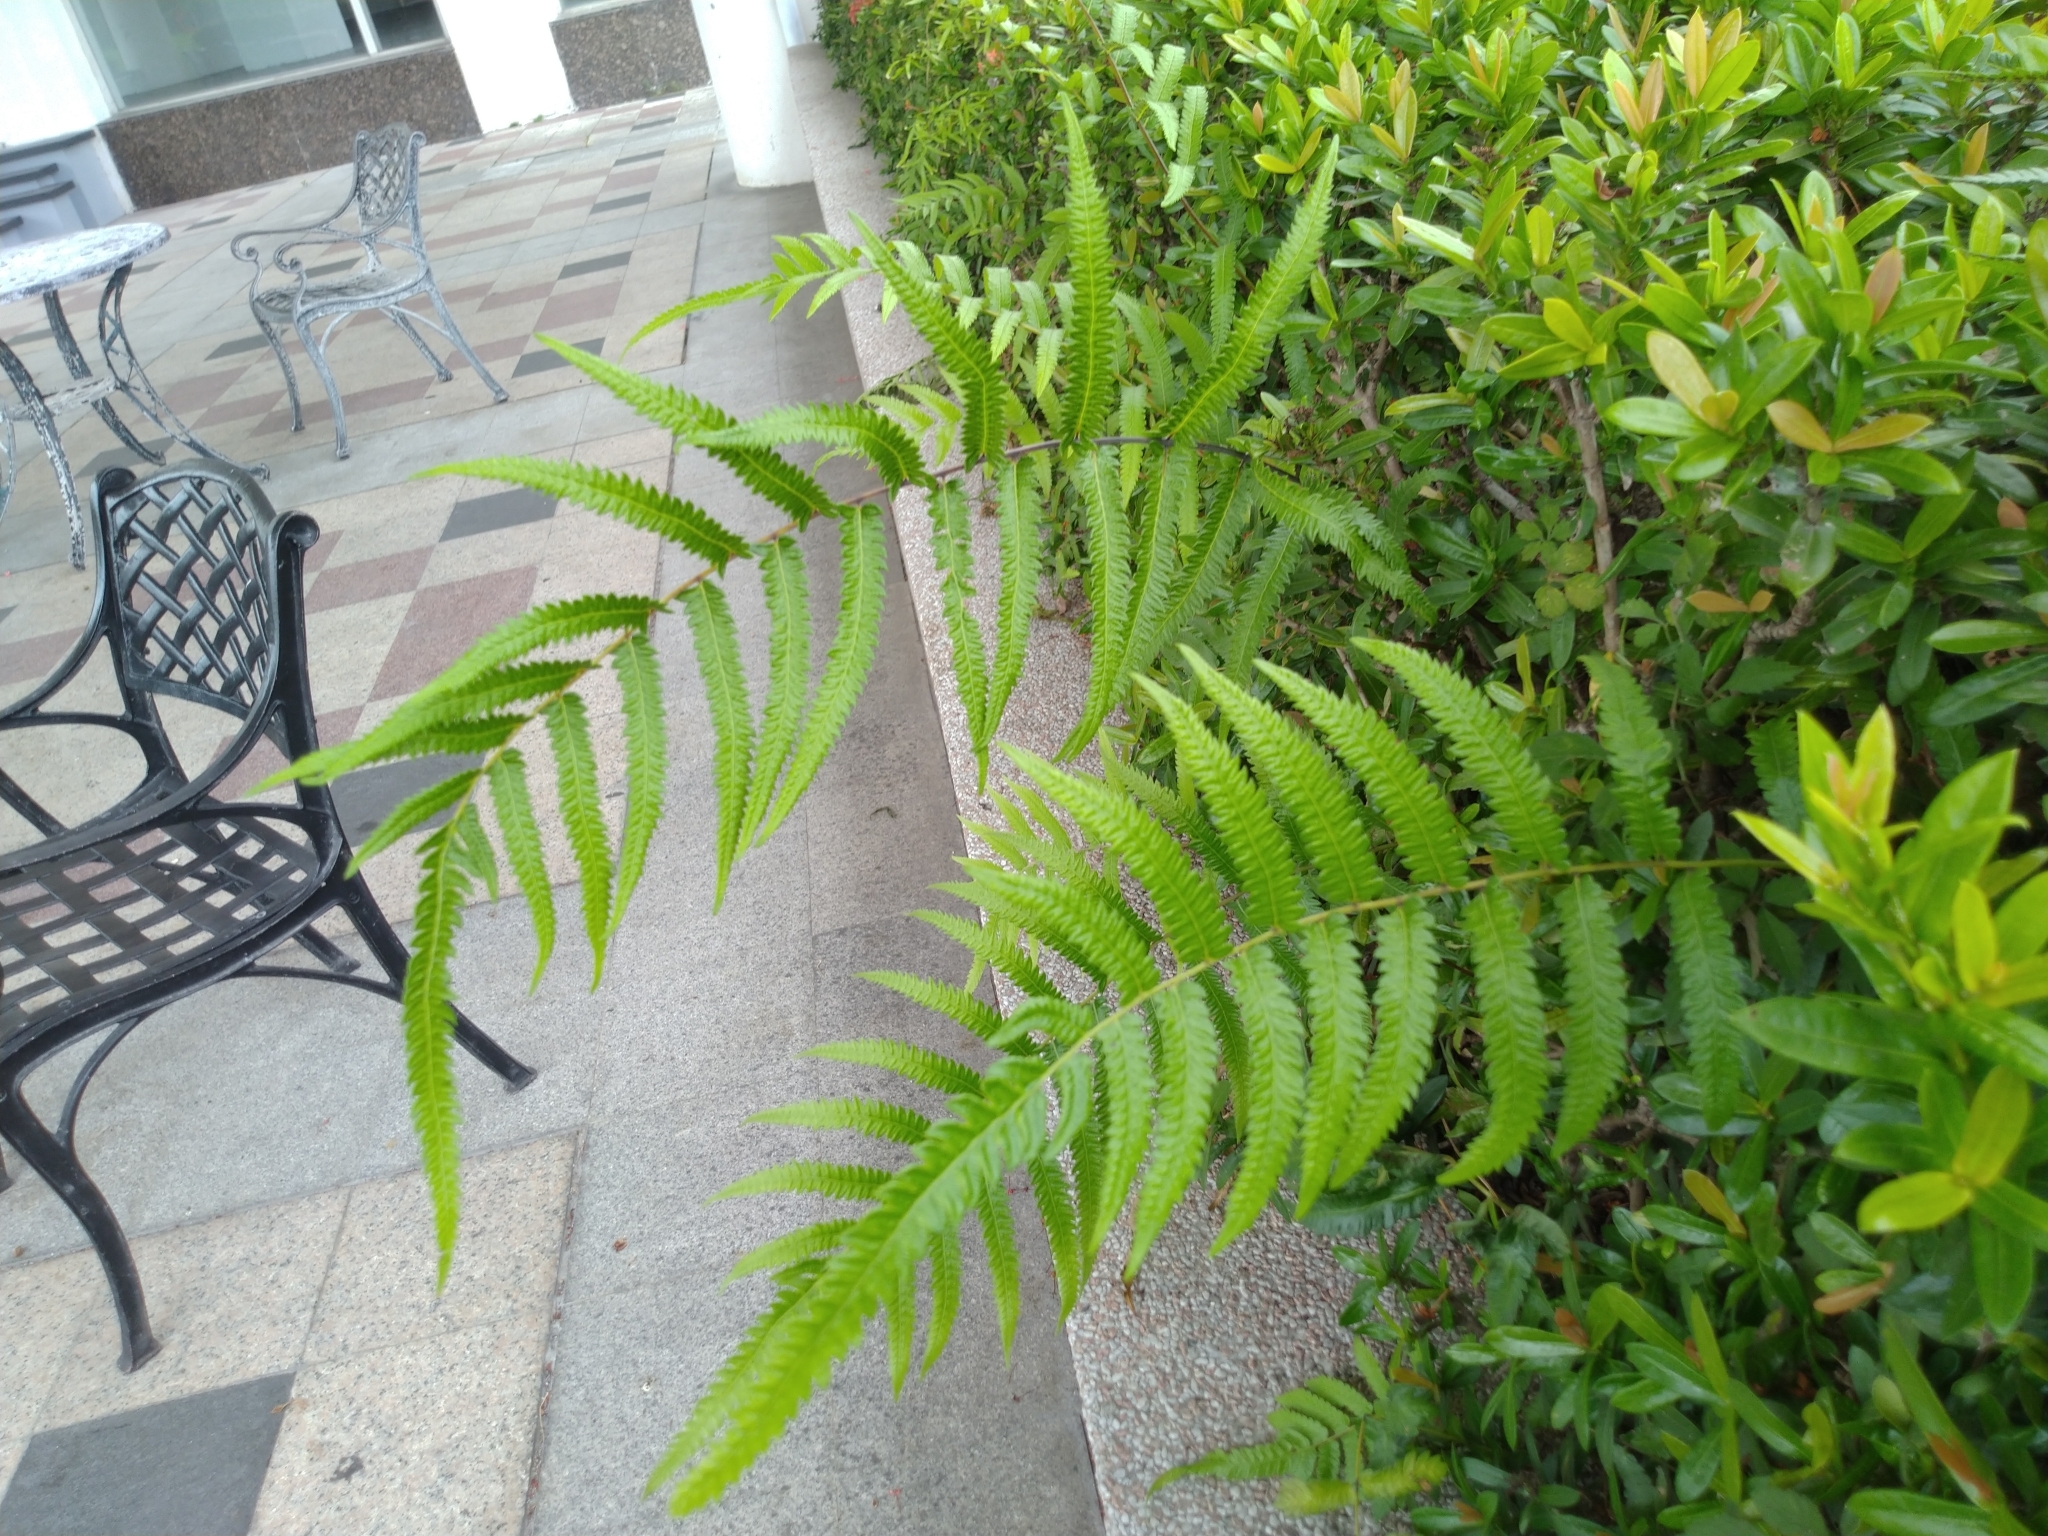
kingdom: Plantae
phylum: Tracheophyta
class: Polypodiopsida
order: Polypodiales
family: Thelypteridaceae
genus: Christella
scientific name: Christella acuminata
